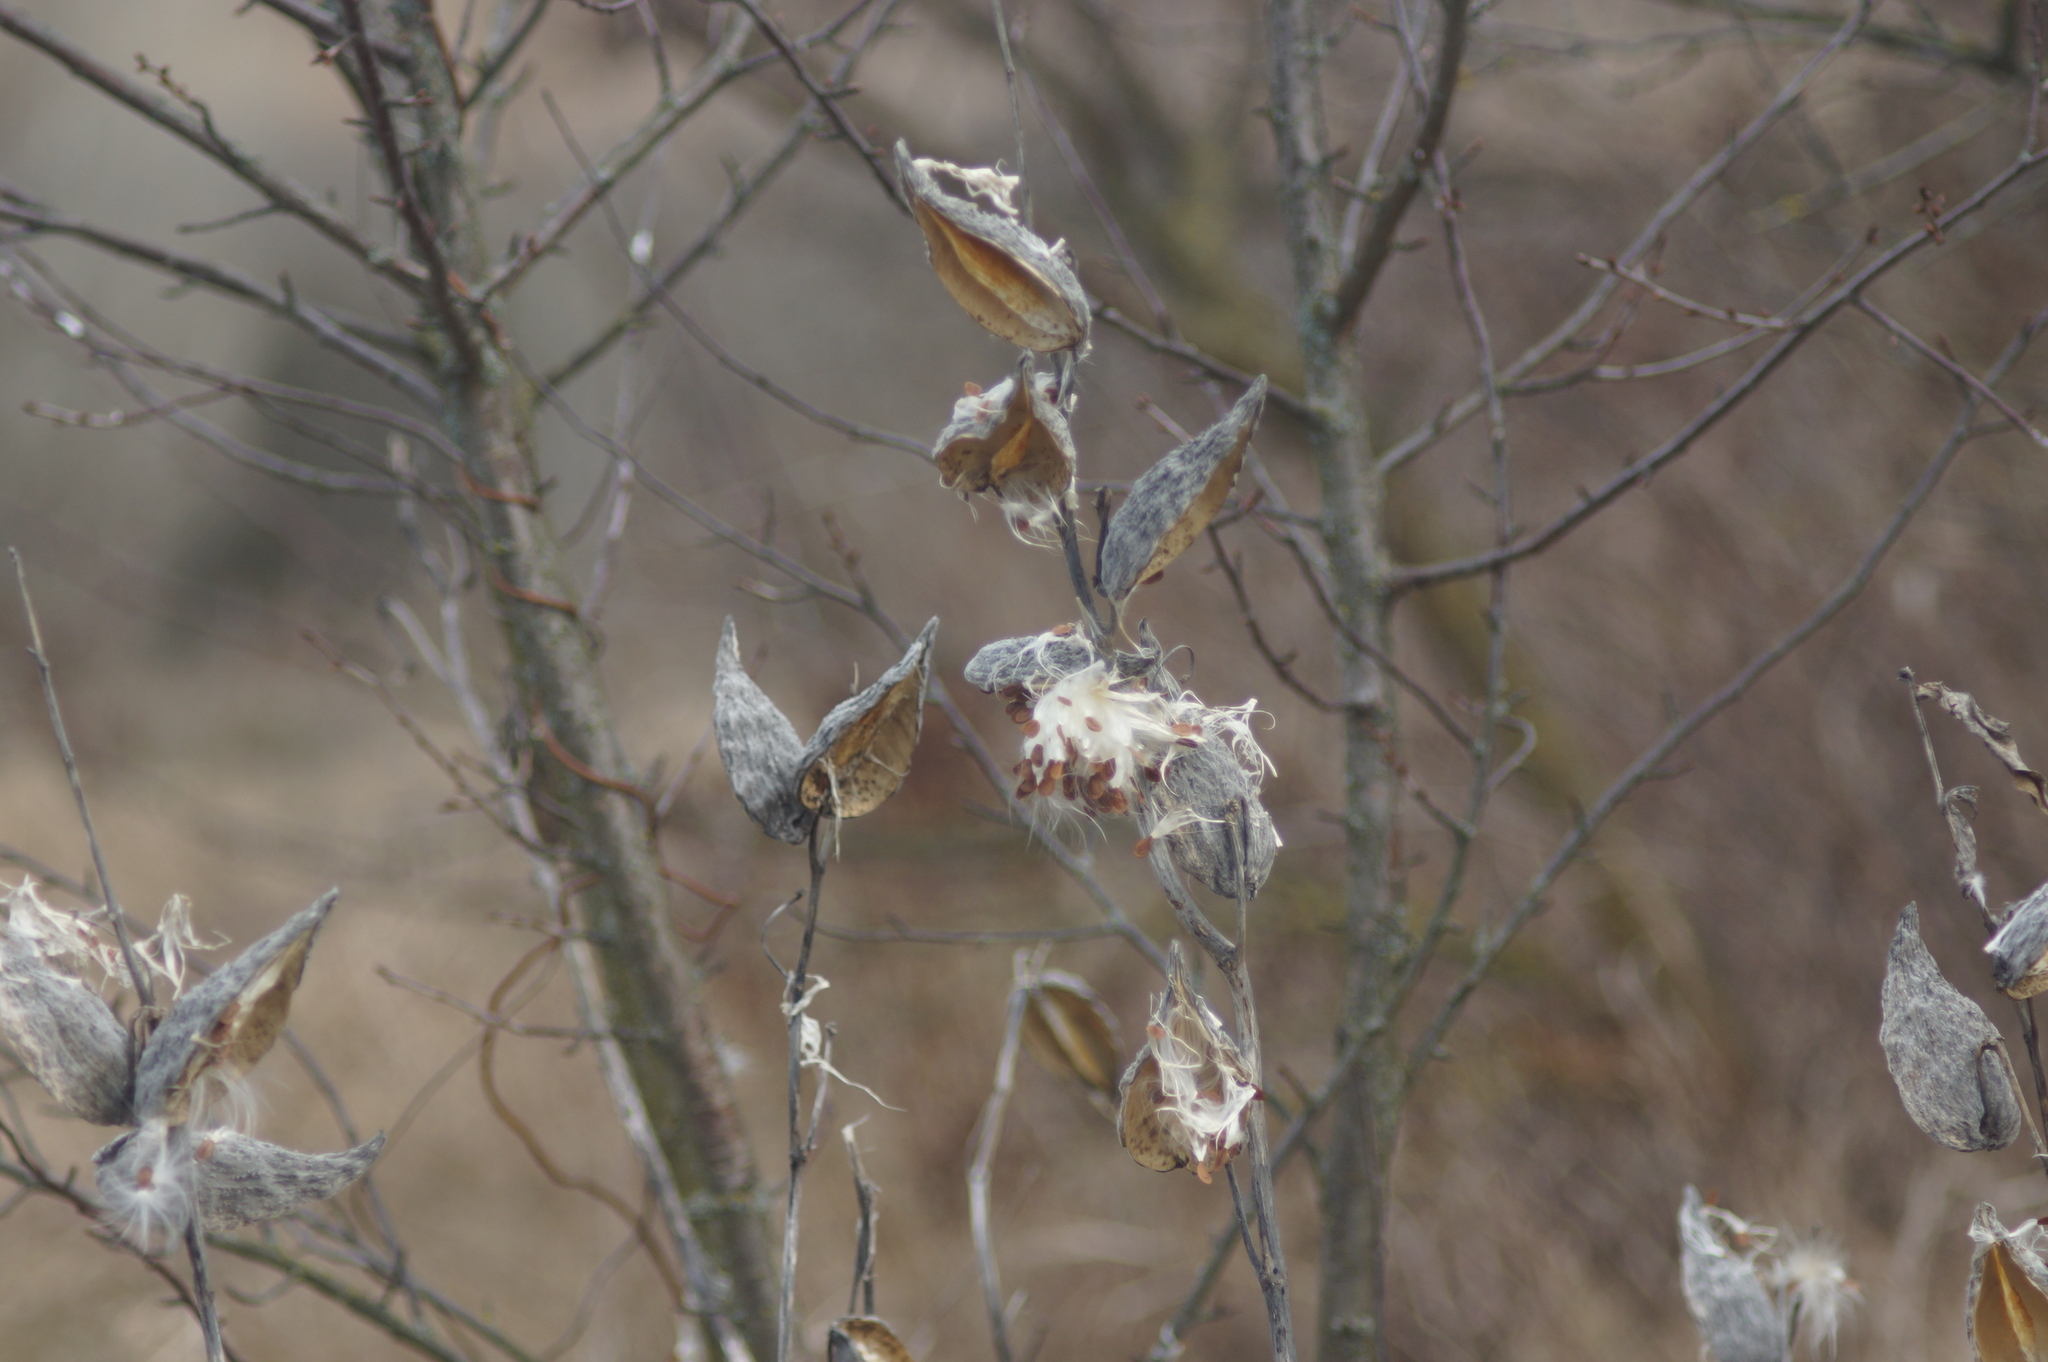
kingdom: Plantae
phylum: Tracheophyta
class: Magnoliopsida
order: Gentianales
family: Apocynaceae
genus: Asclepias
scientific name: Asclepias syriaca
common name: Common milkweed
